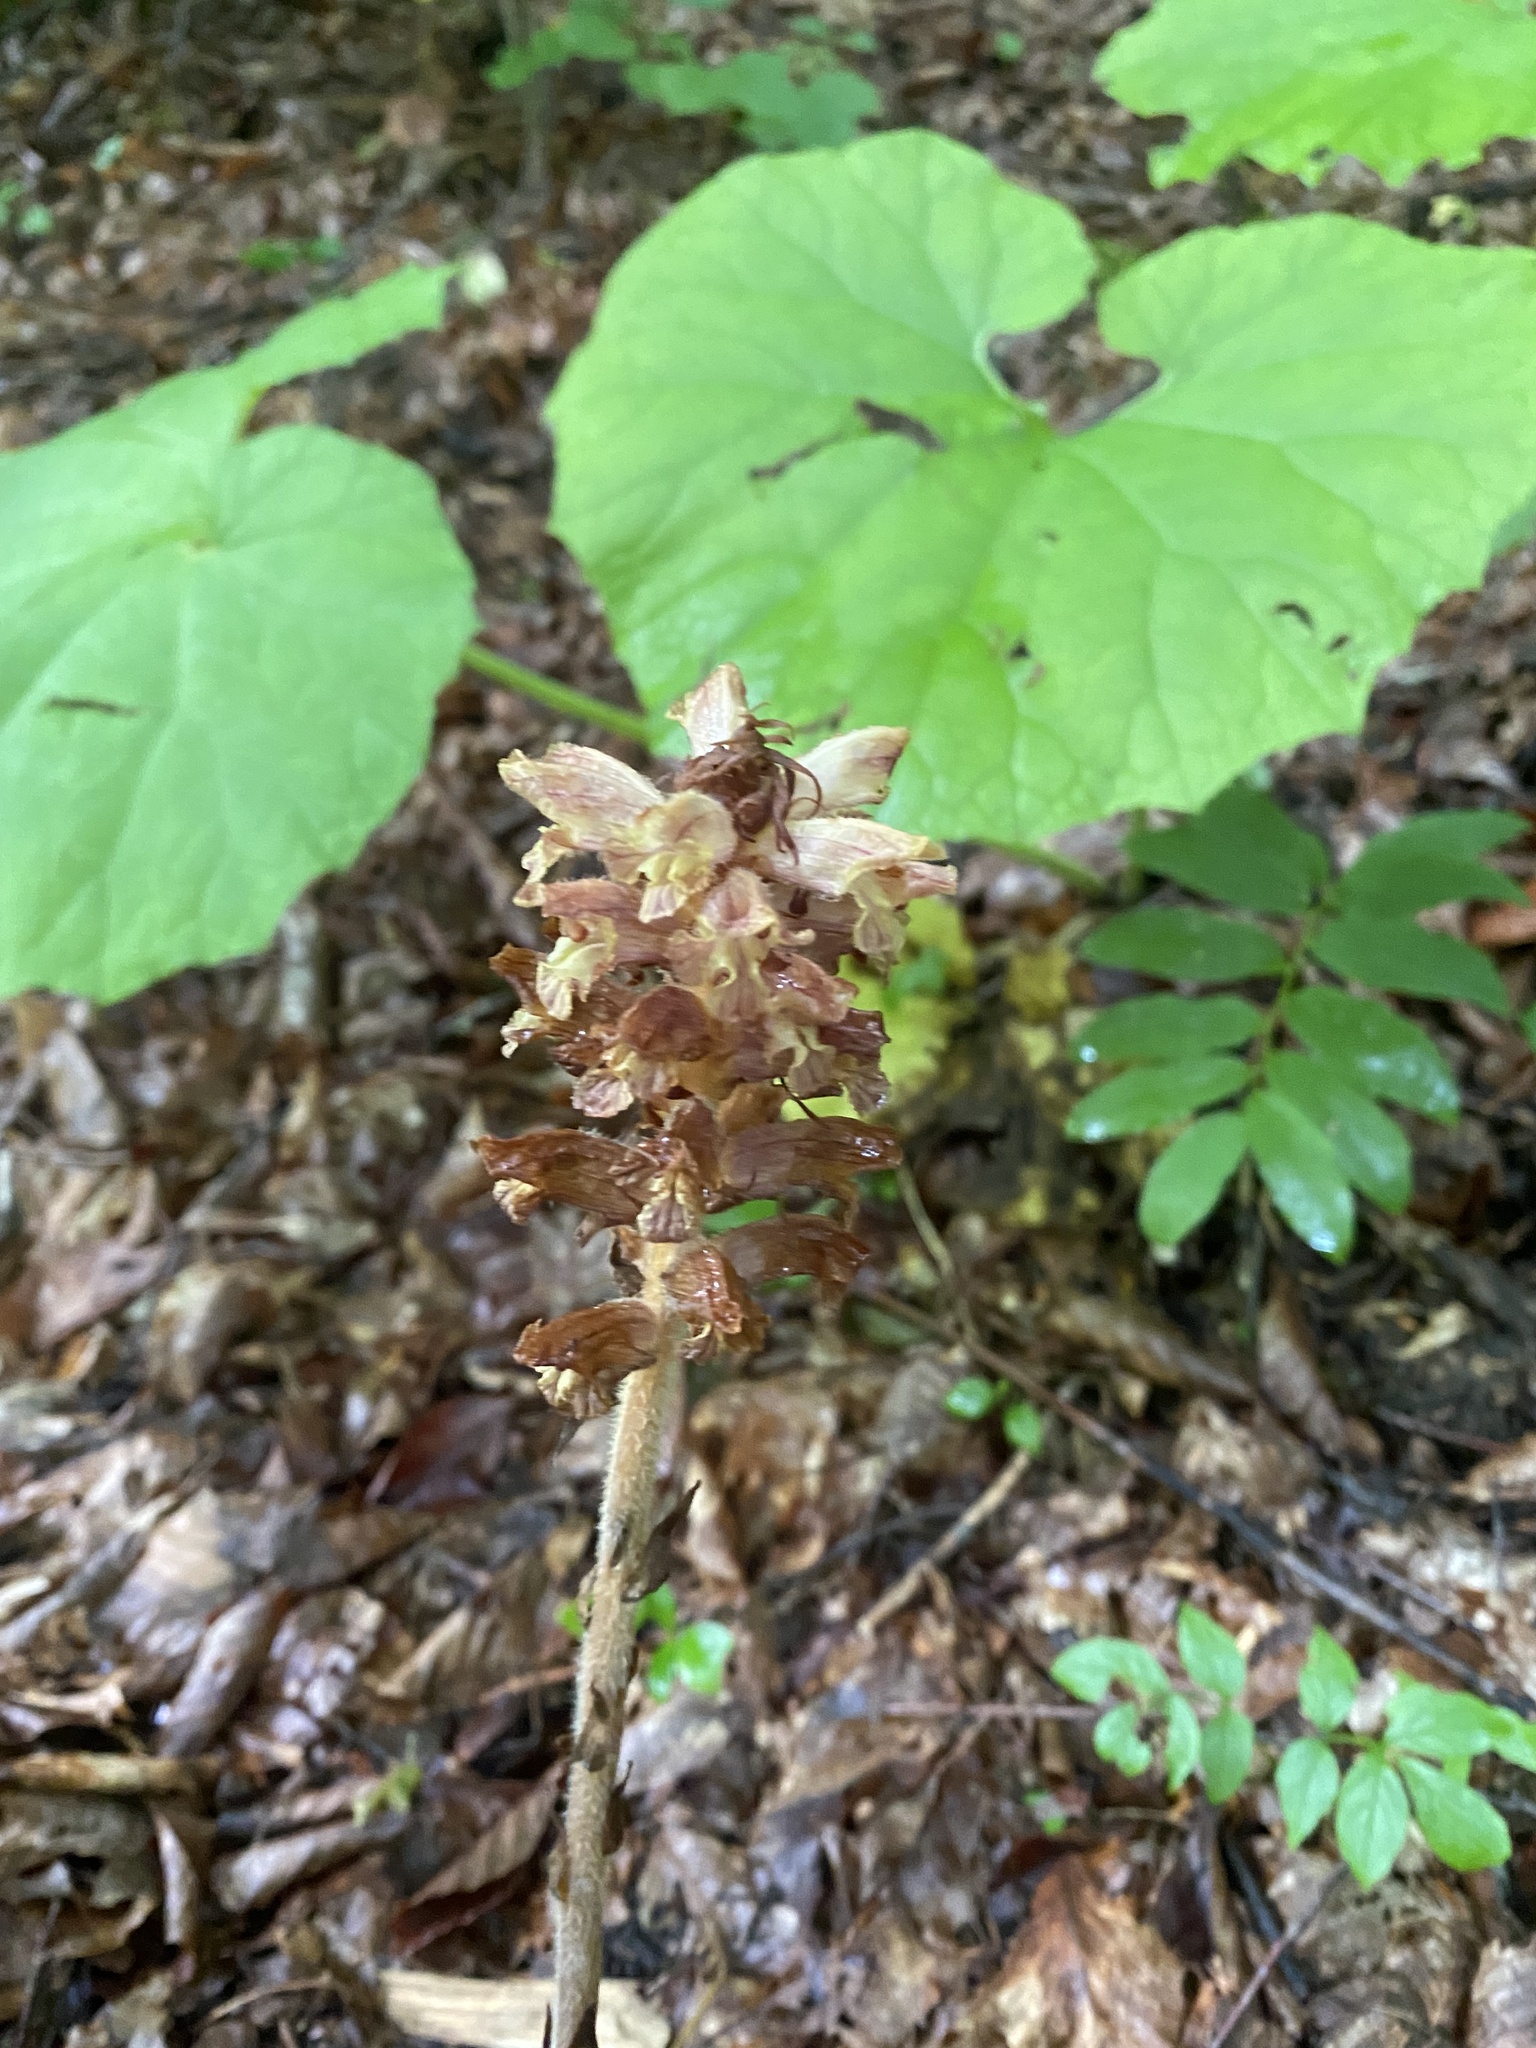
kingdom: Plantae
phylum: Tracheophyta
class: Magnoliopsida
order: Lamiales
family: Orobanchaceae
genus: Orobanche
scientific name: Orobanche laxissima
